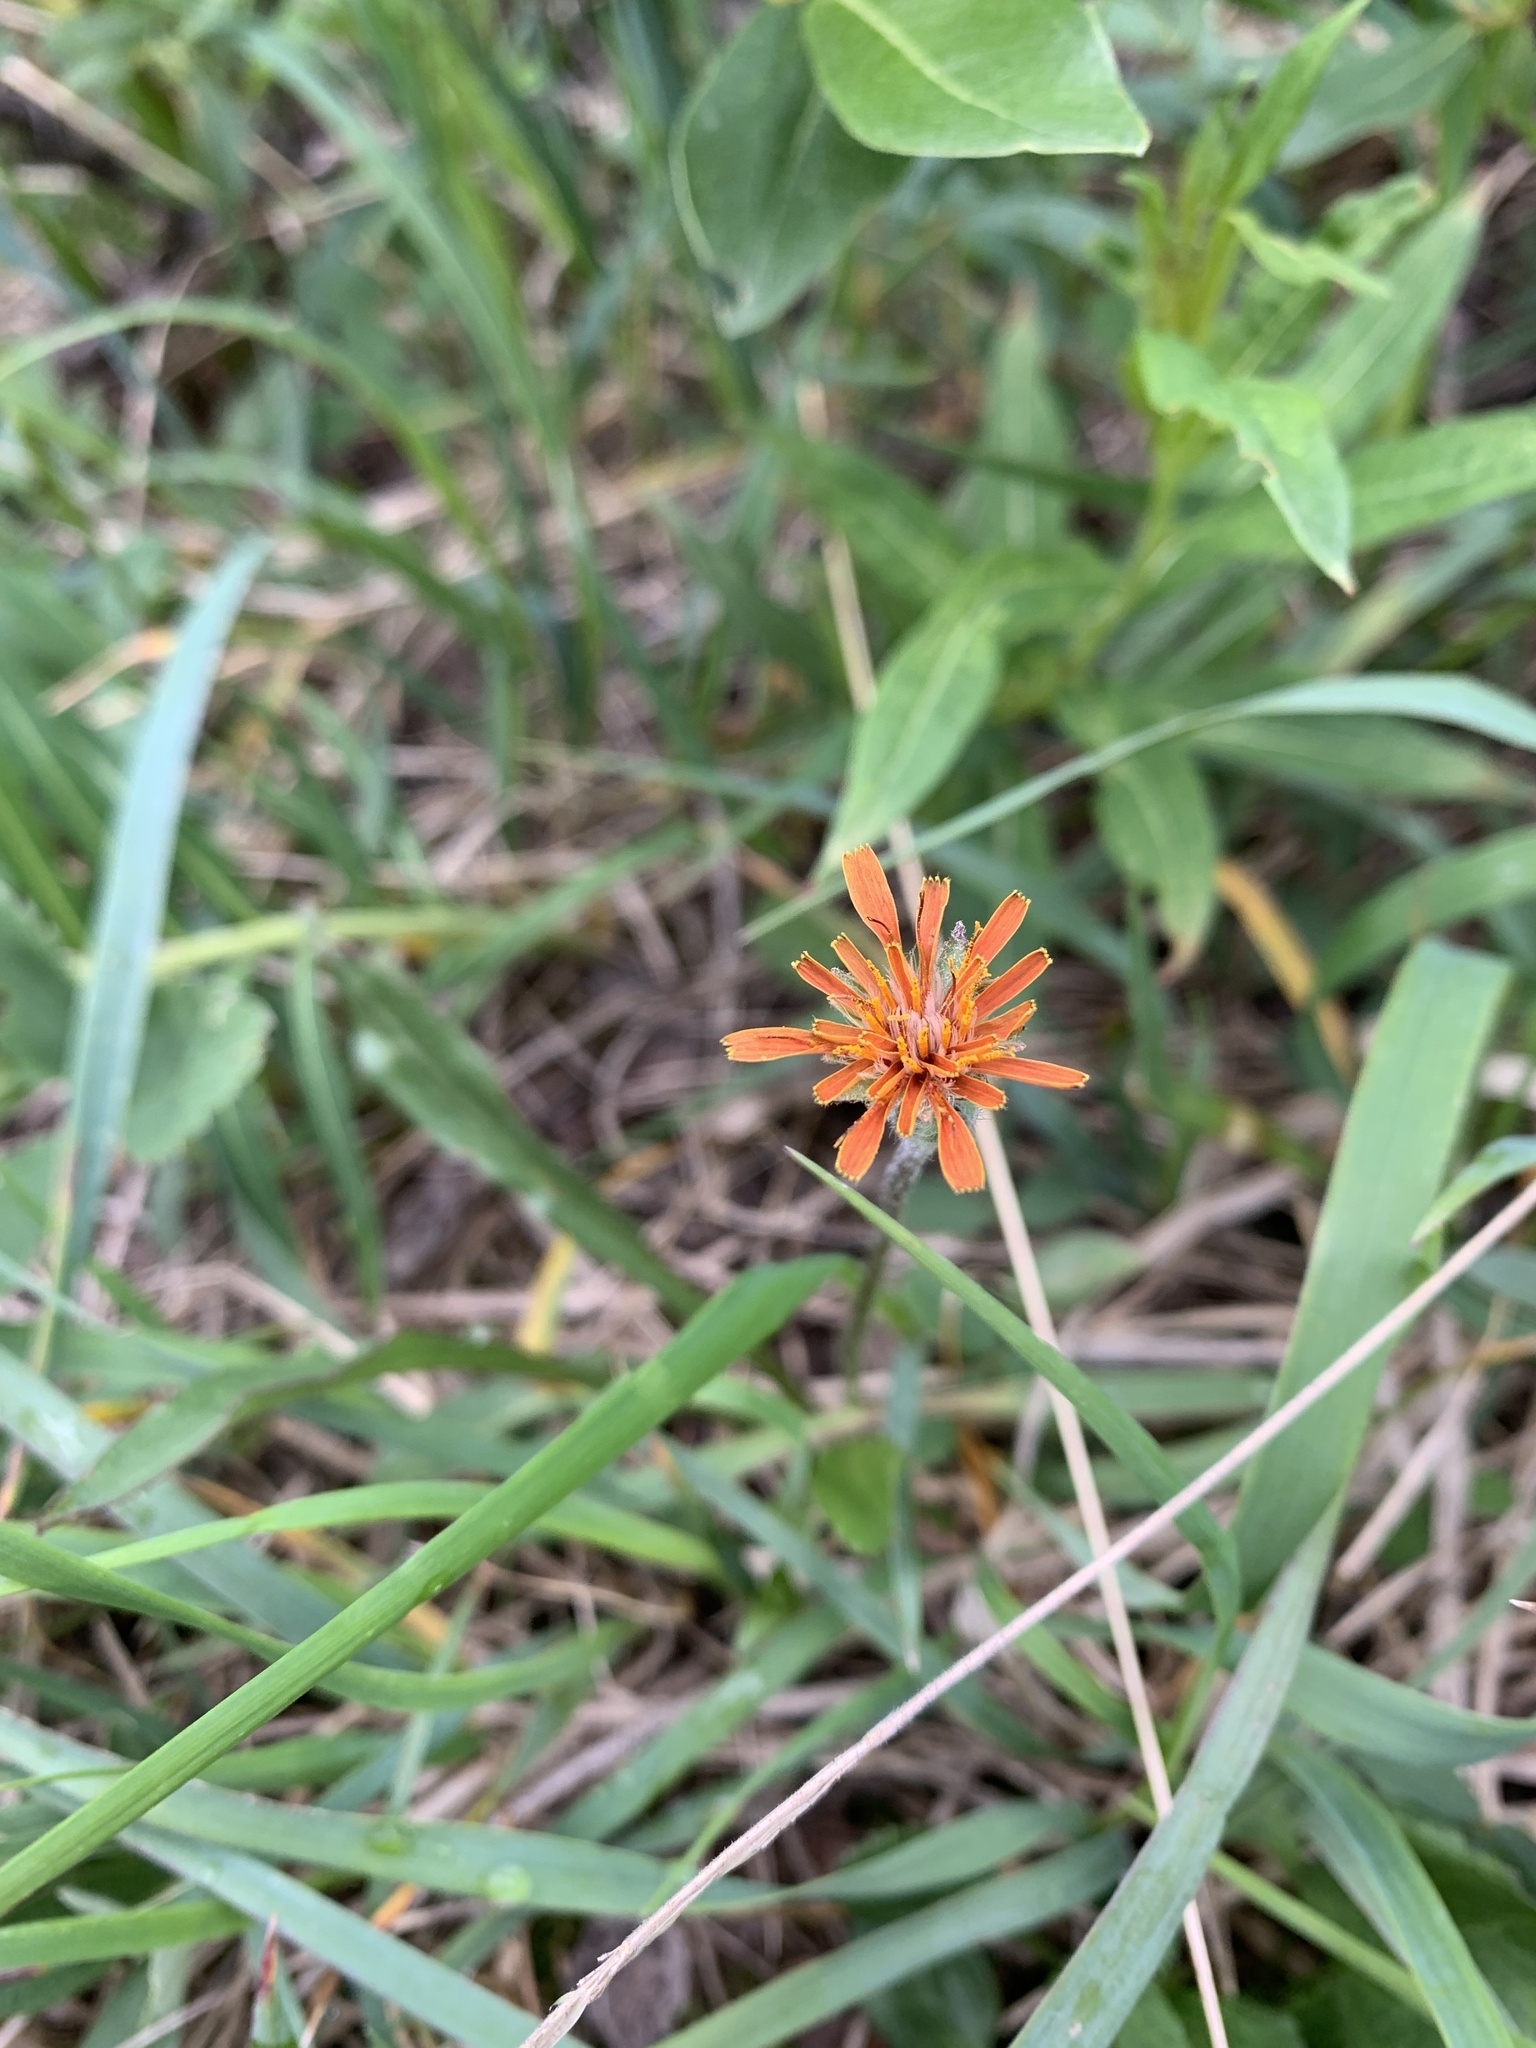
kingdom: Plantae
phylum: Tracheophyta
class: Magnoliopsida
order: Asterales
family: Asteraceae
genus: Agoseris
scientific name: Agoseris aurantiaca
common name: Mountain agoseris
